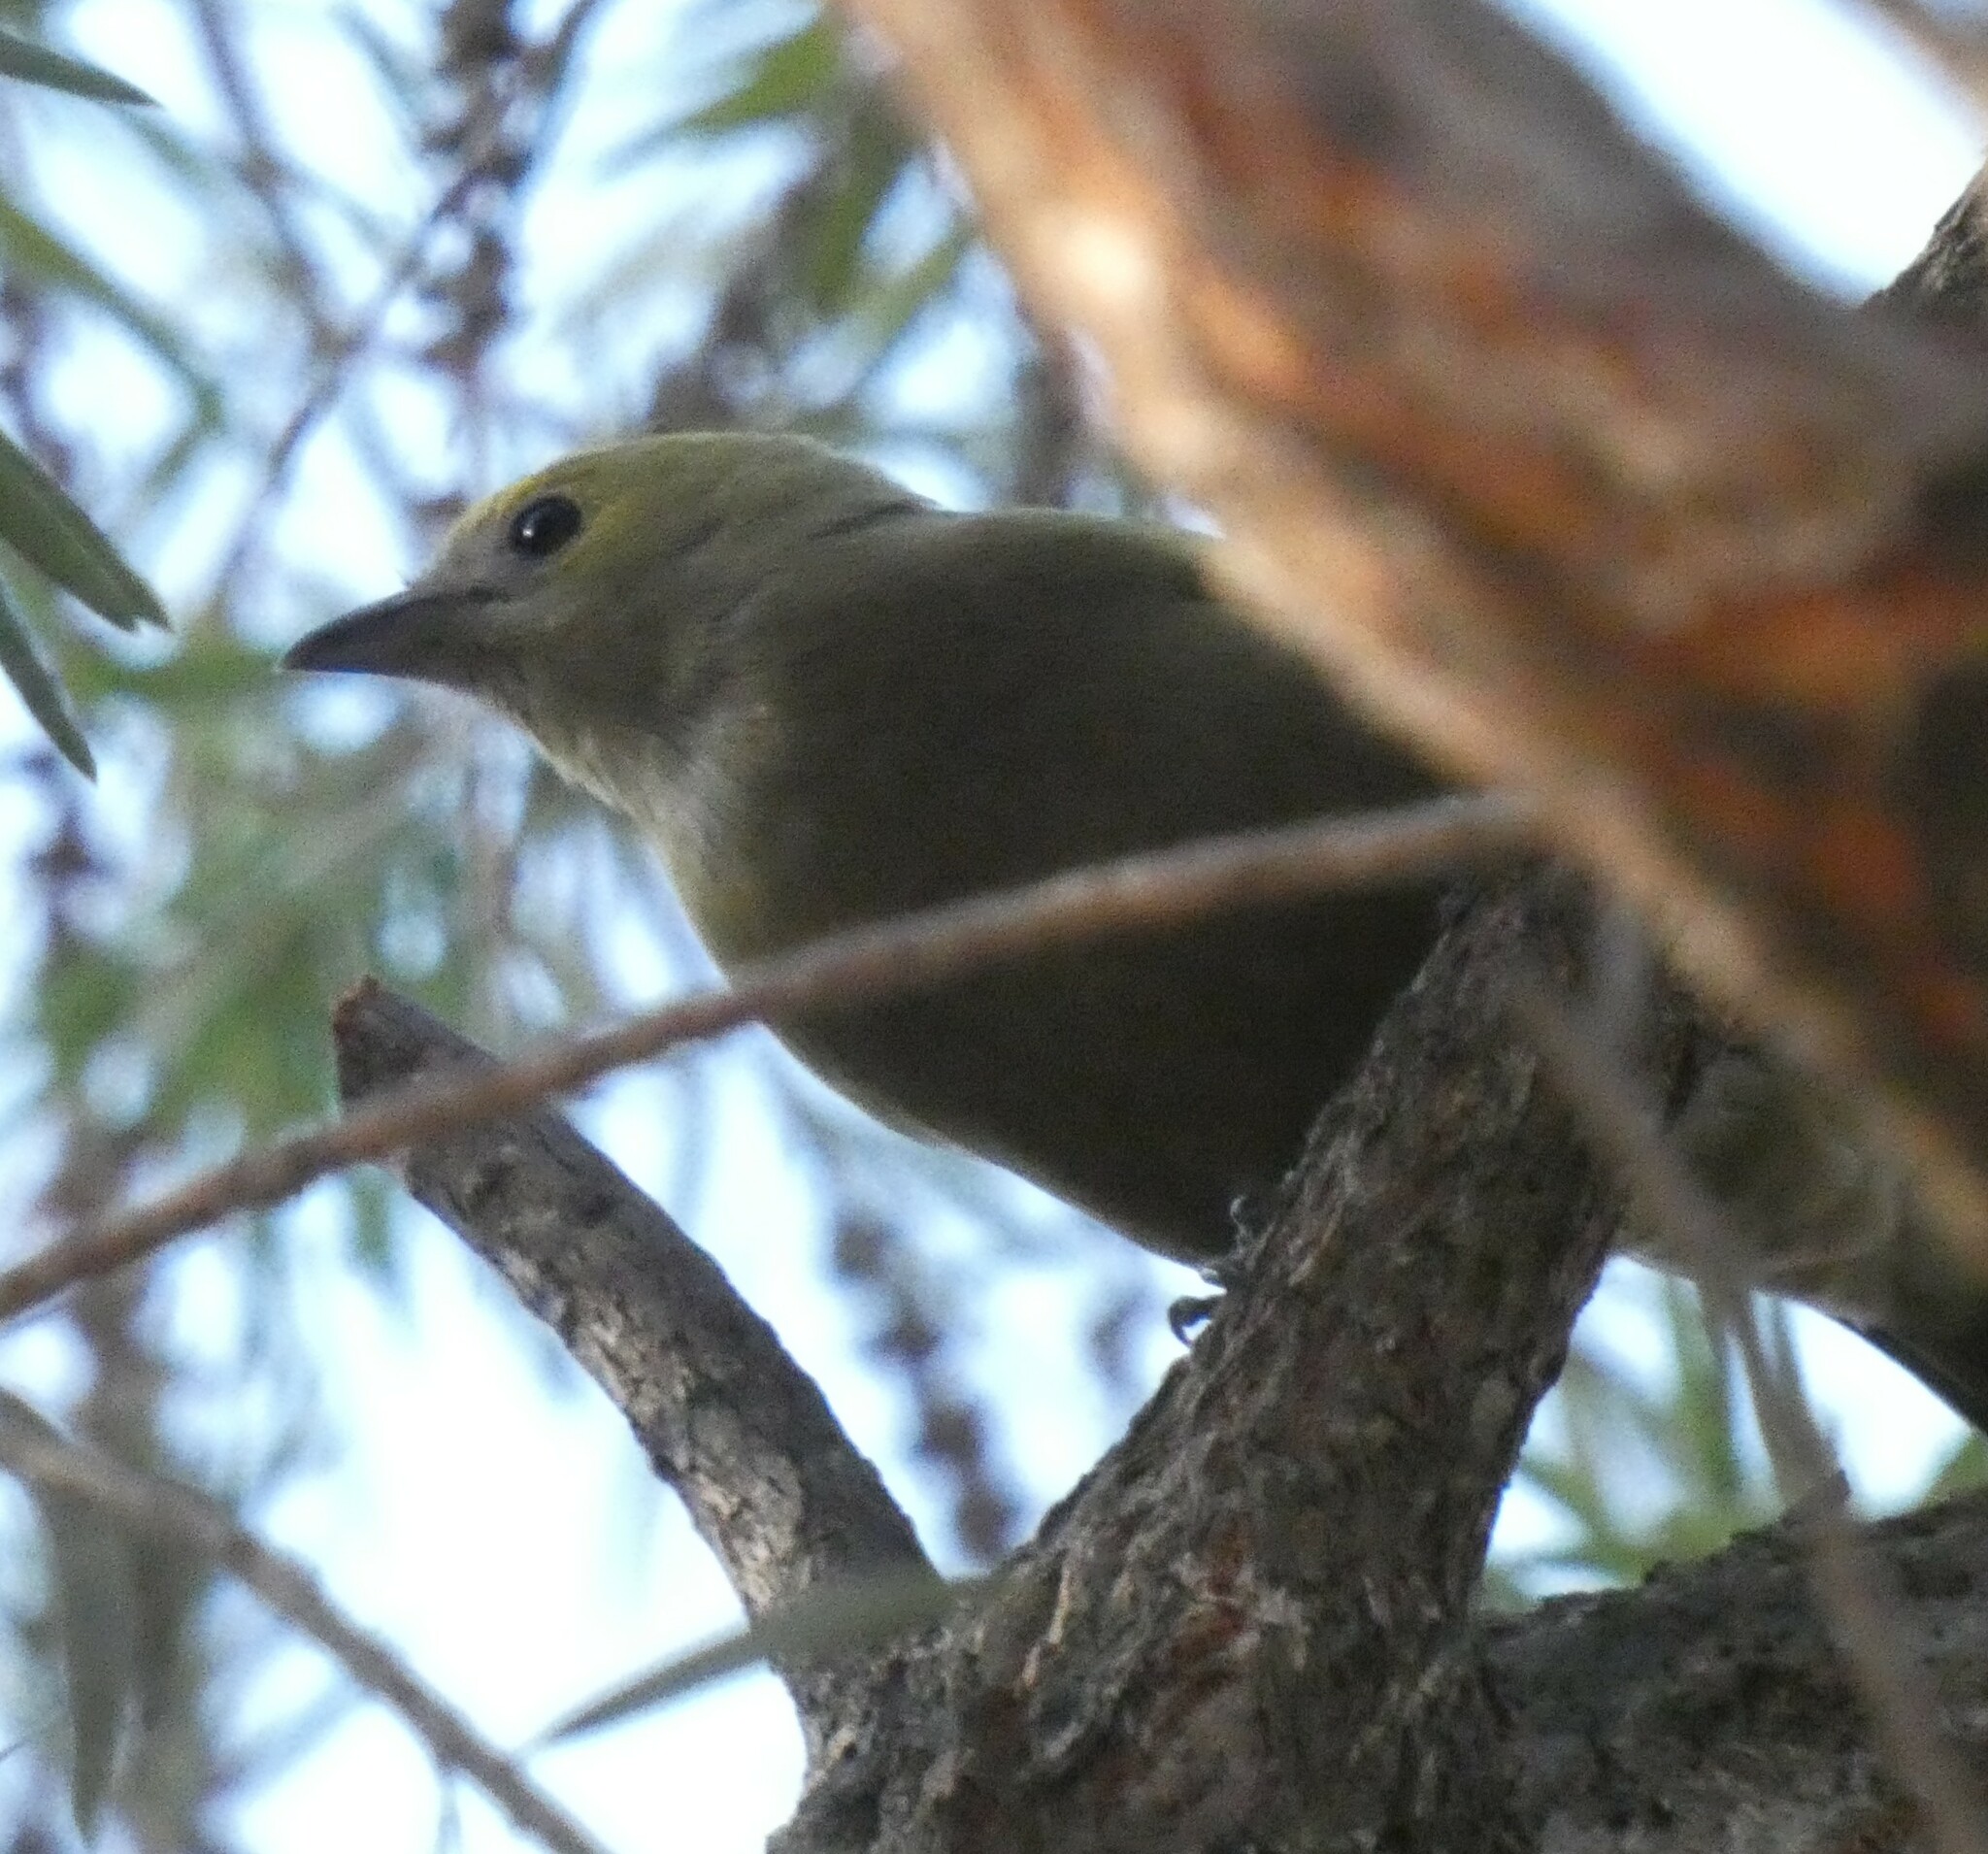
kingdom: Animalia
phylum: Chordata
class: Aves
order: Passeriformes
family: Thraupidae
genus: Thraupis
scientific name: Thraupis palmarum
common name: Palm tanager
